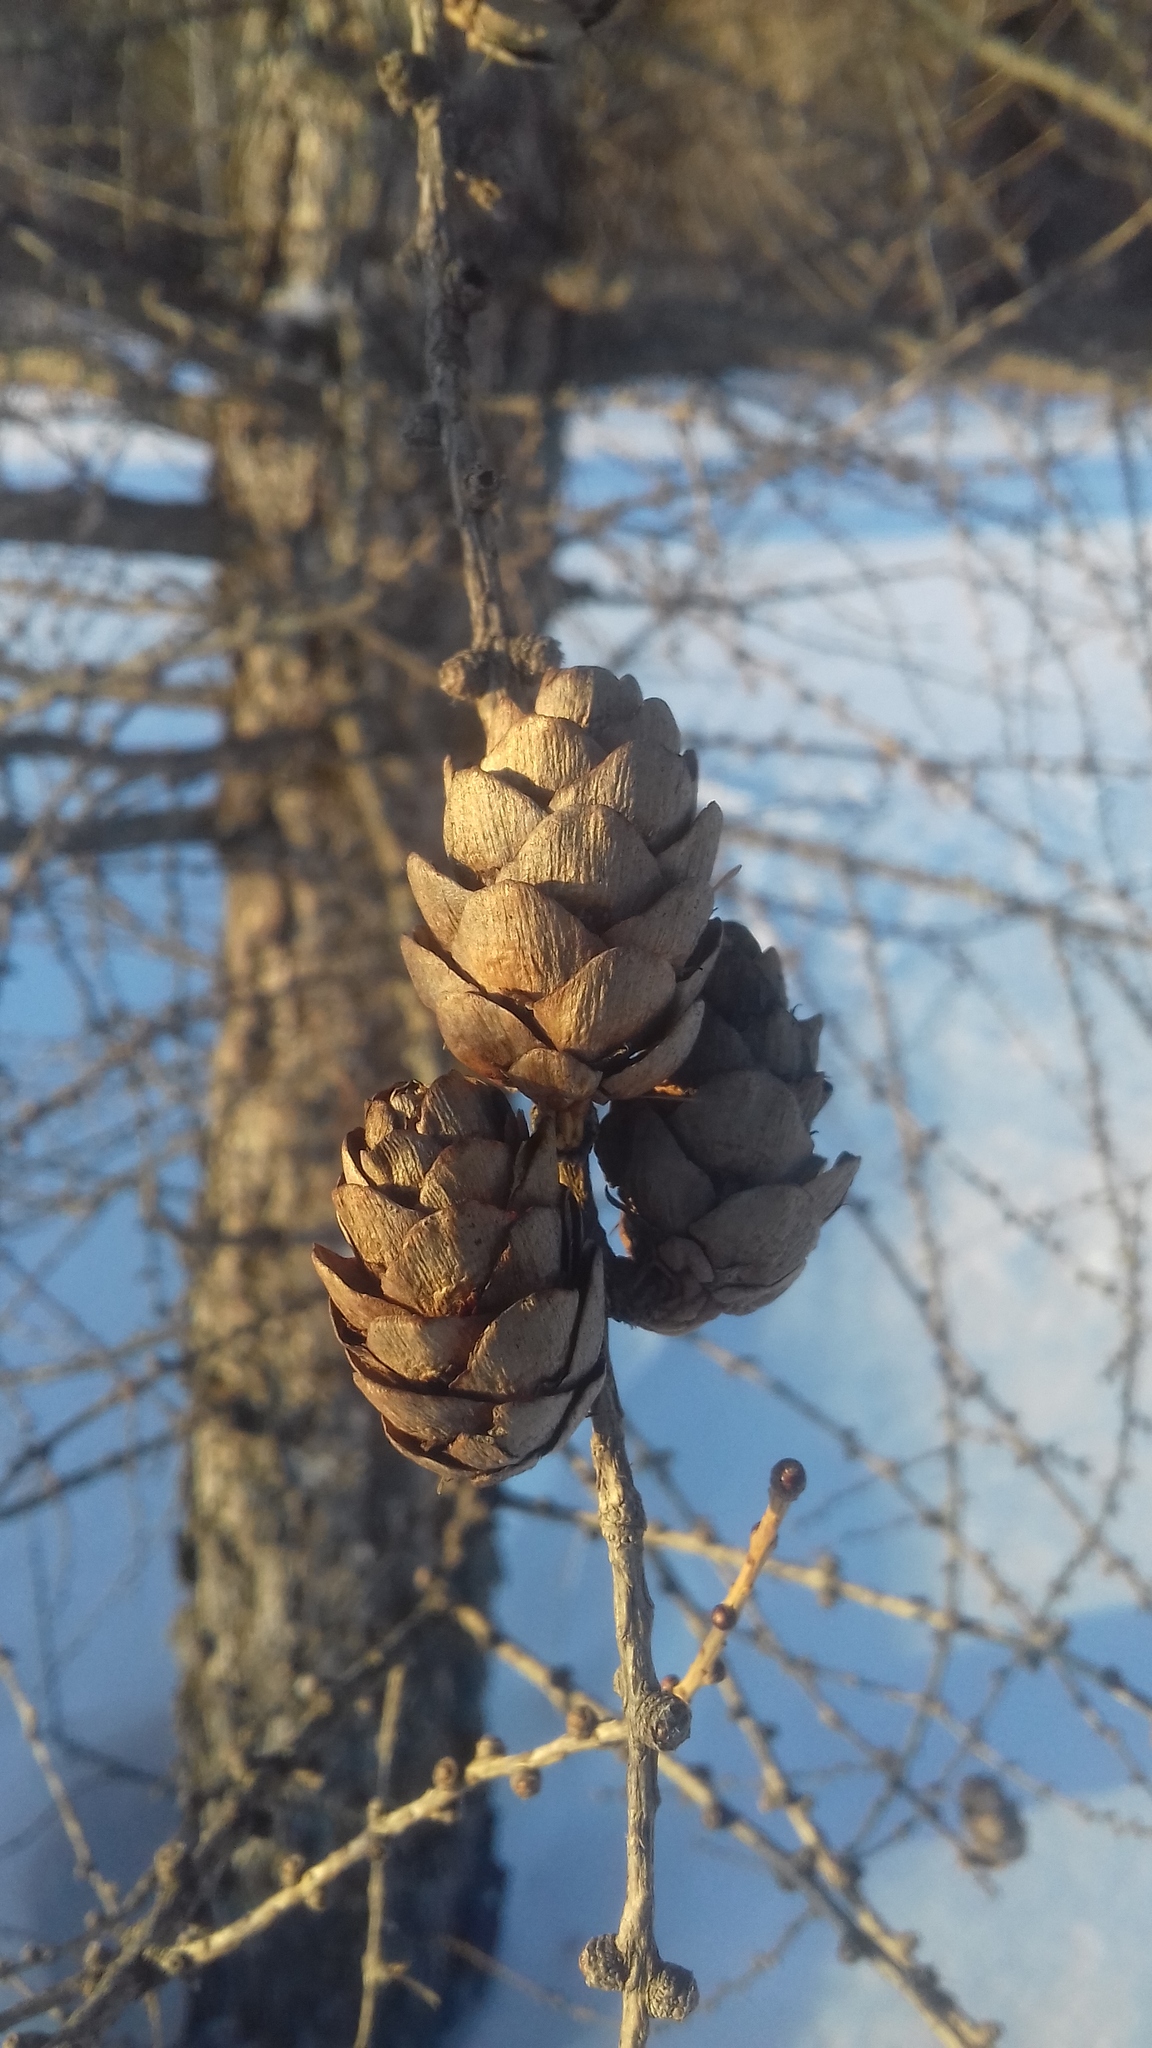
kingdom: Plantae
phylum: Tracheophyta
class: Pinopsida
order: Pinales
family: Pinaceae
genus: Larix
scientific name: Larix sibirica
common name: Siberian larch
